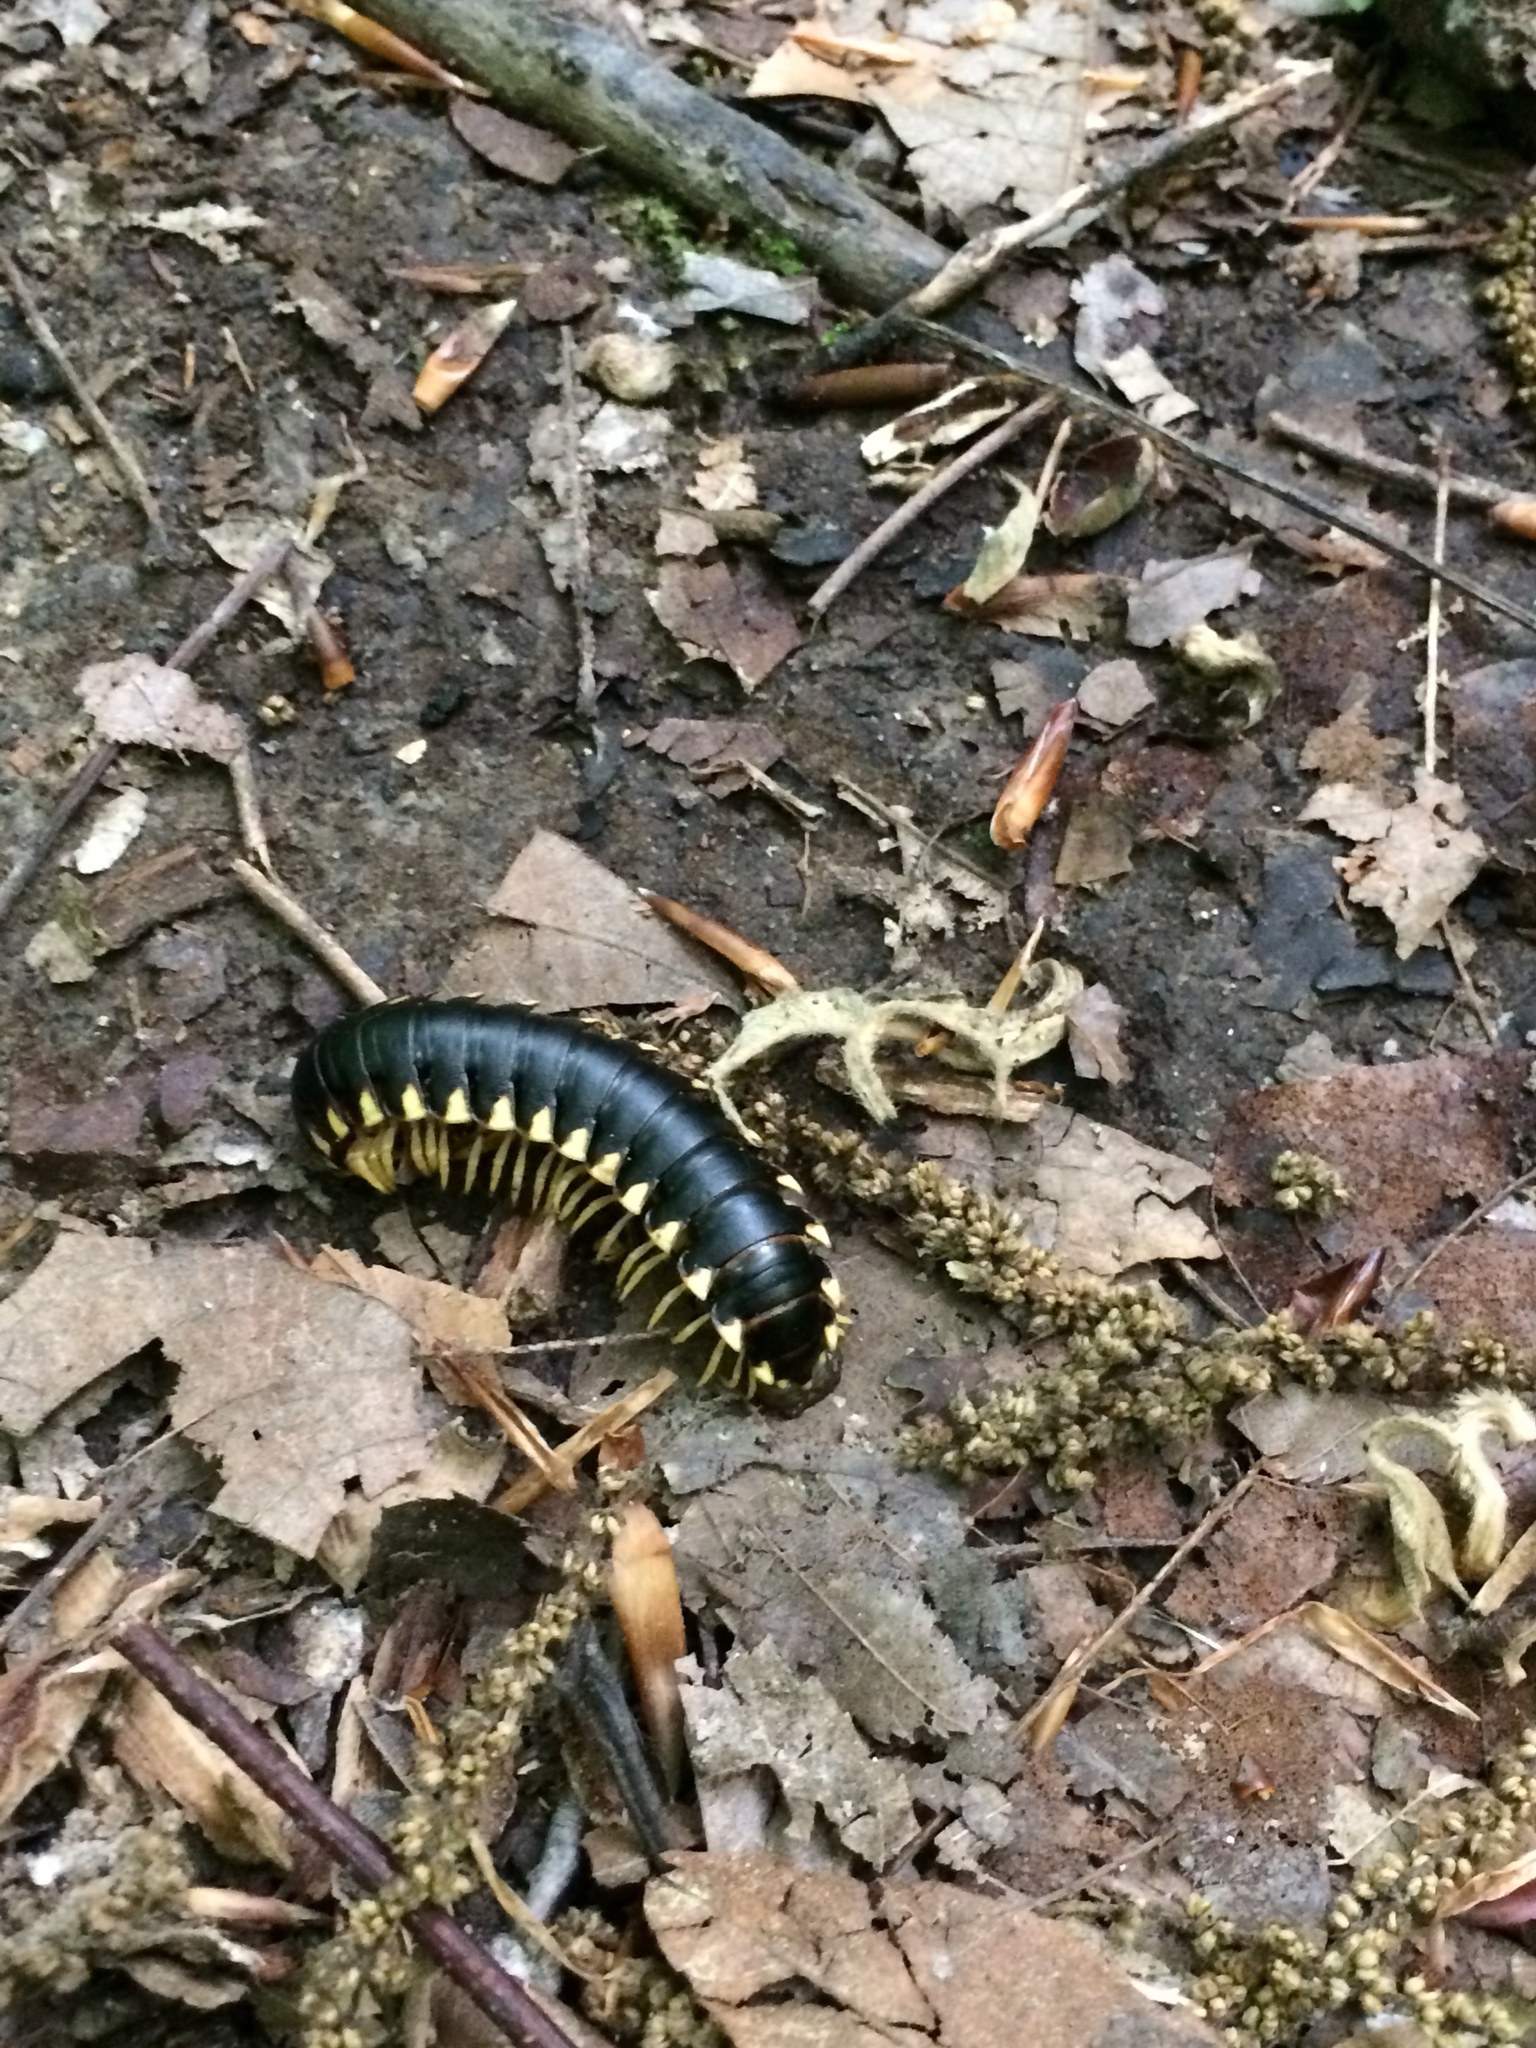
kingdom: Animalia
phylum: Arthropoda
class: Diplopoda
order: Polydesmida
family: Xystodesmidae
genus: Apheloria
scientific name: Apheloria tigana
